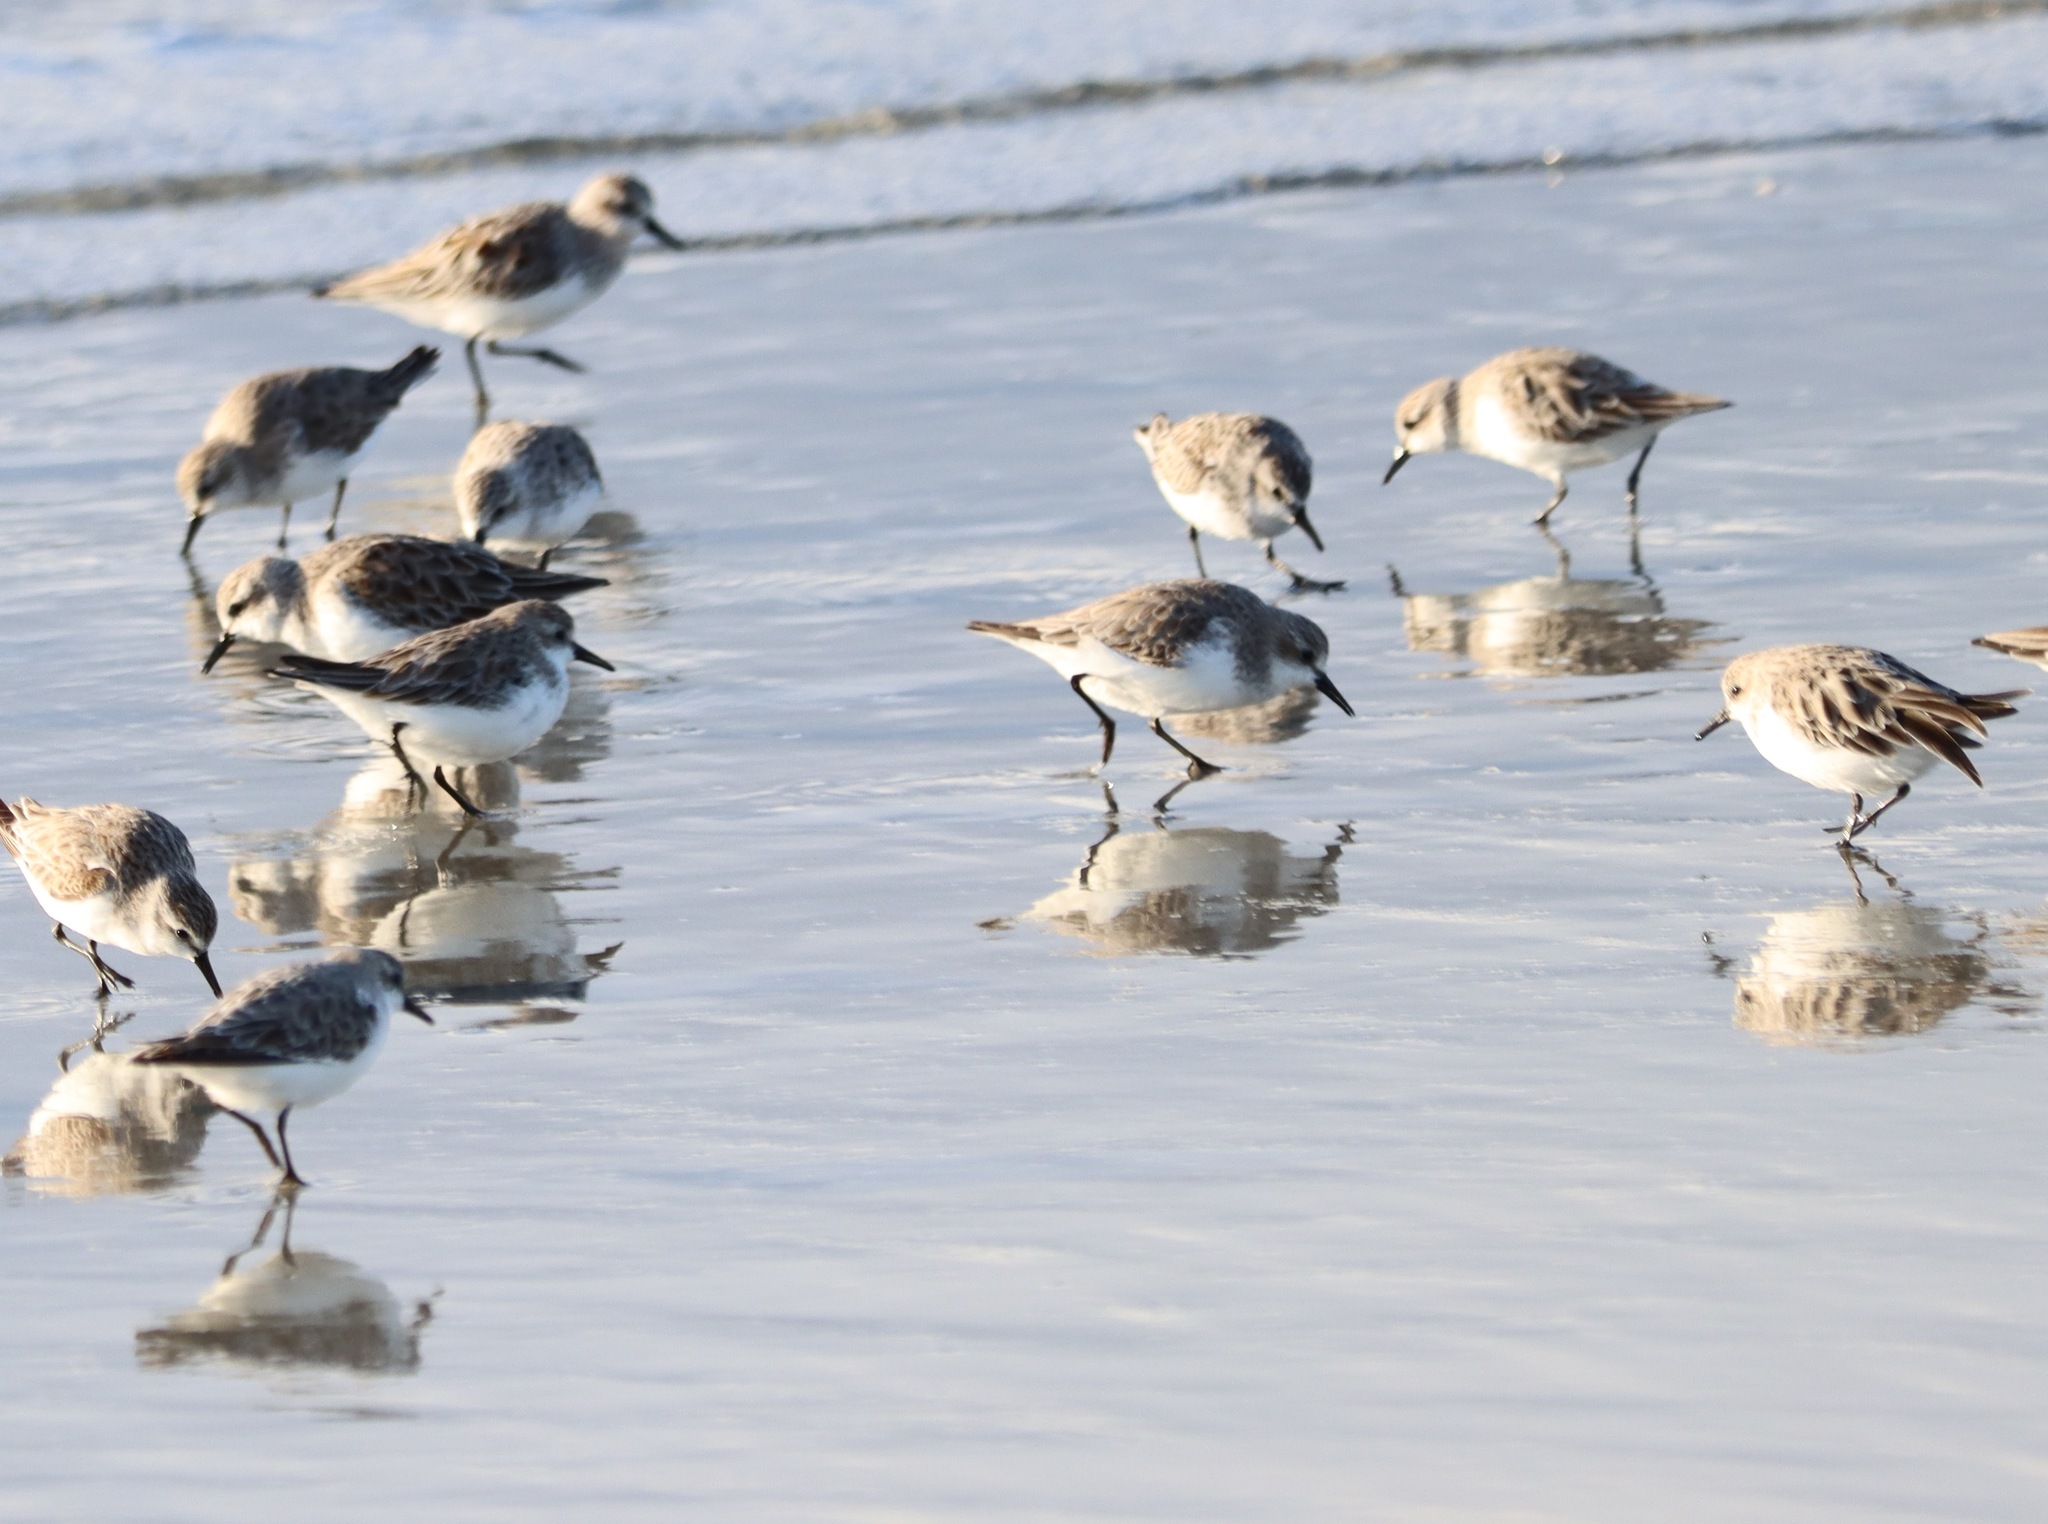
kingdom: Animalia
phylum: Chordata
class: Aves
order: Charadriiformes
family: Scolopacidae
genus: Calidris
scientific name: Calidris ruficollis
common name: Red-necked stint
